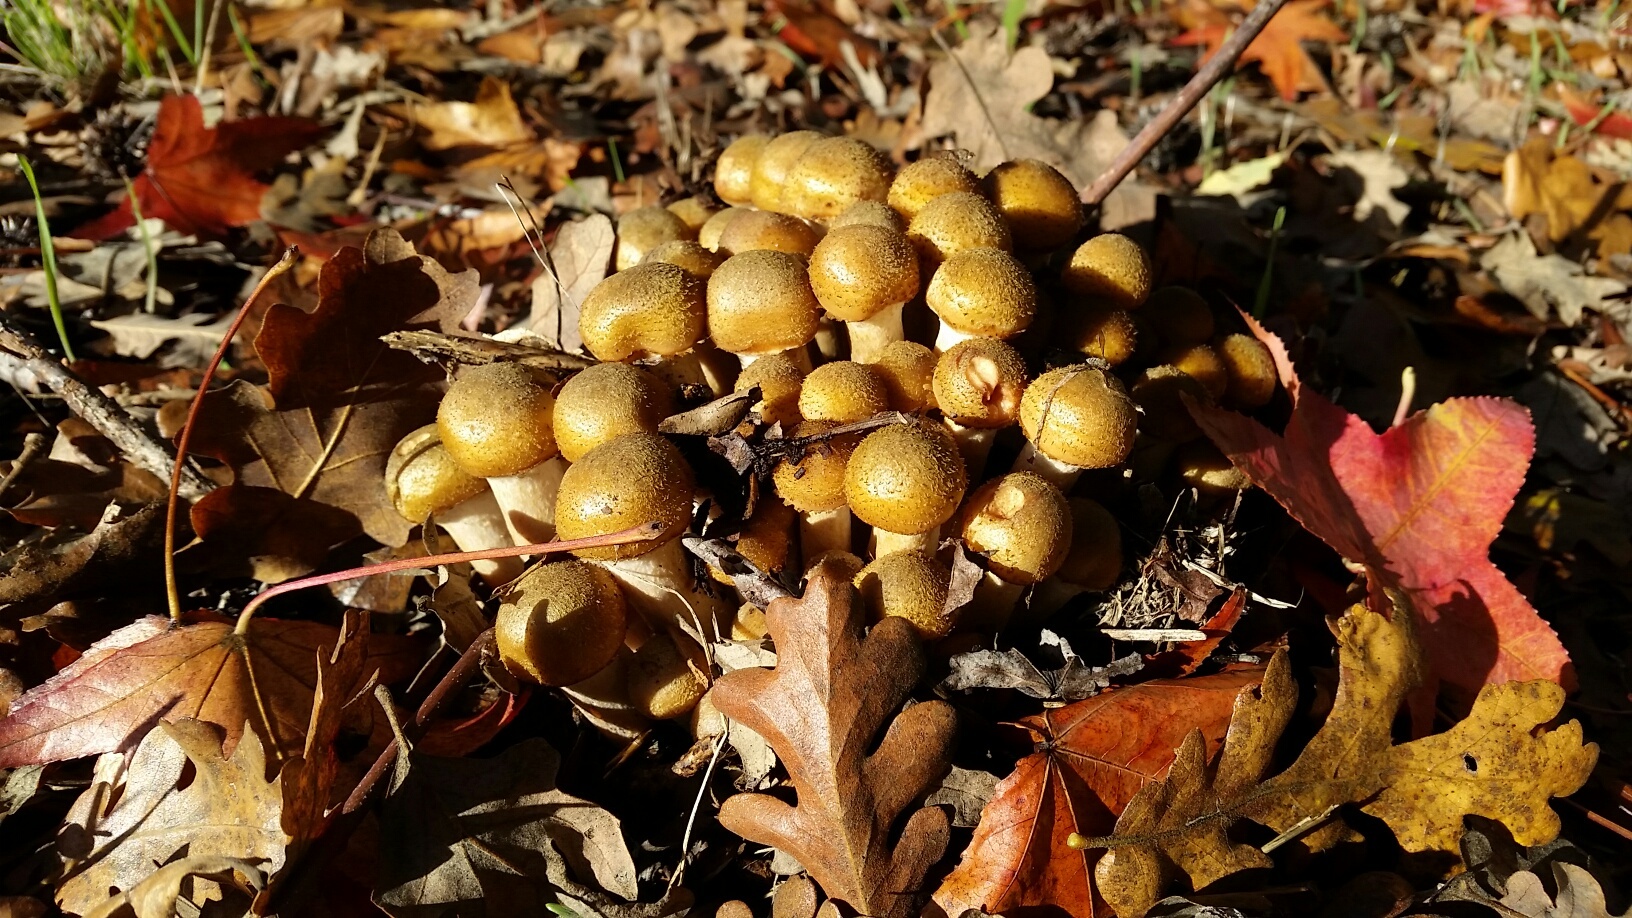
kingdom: Fungi
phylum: Basidiomycota
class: Agaricomycetes
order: Agaricales
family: Physalacriaceae
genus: Armillaria
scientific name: Armillaria mellea
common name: Honey fungus
